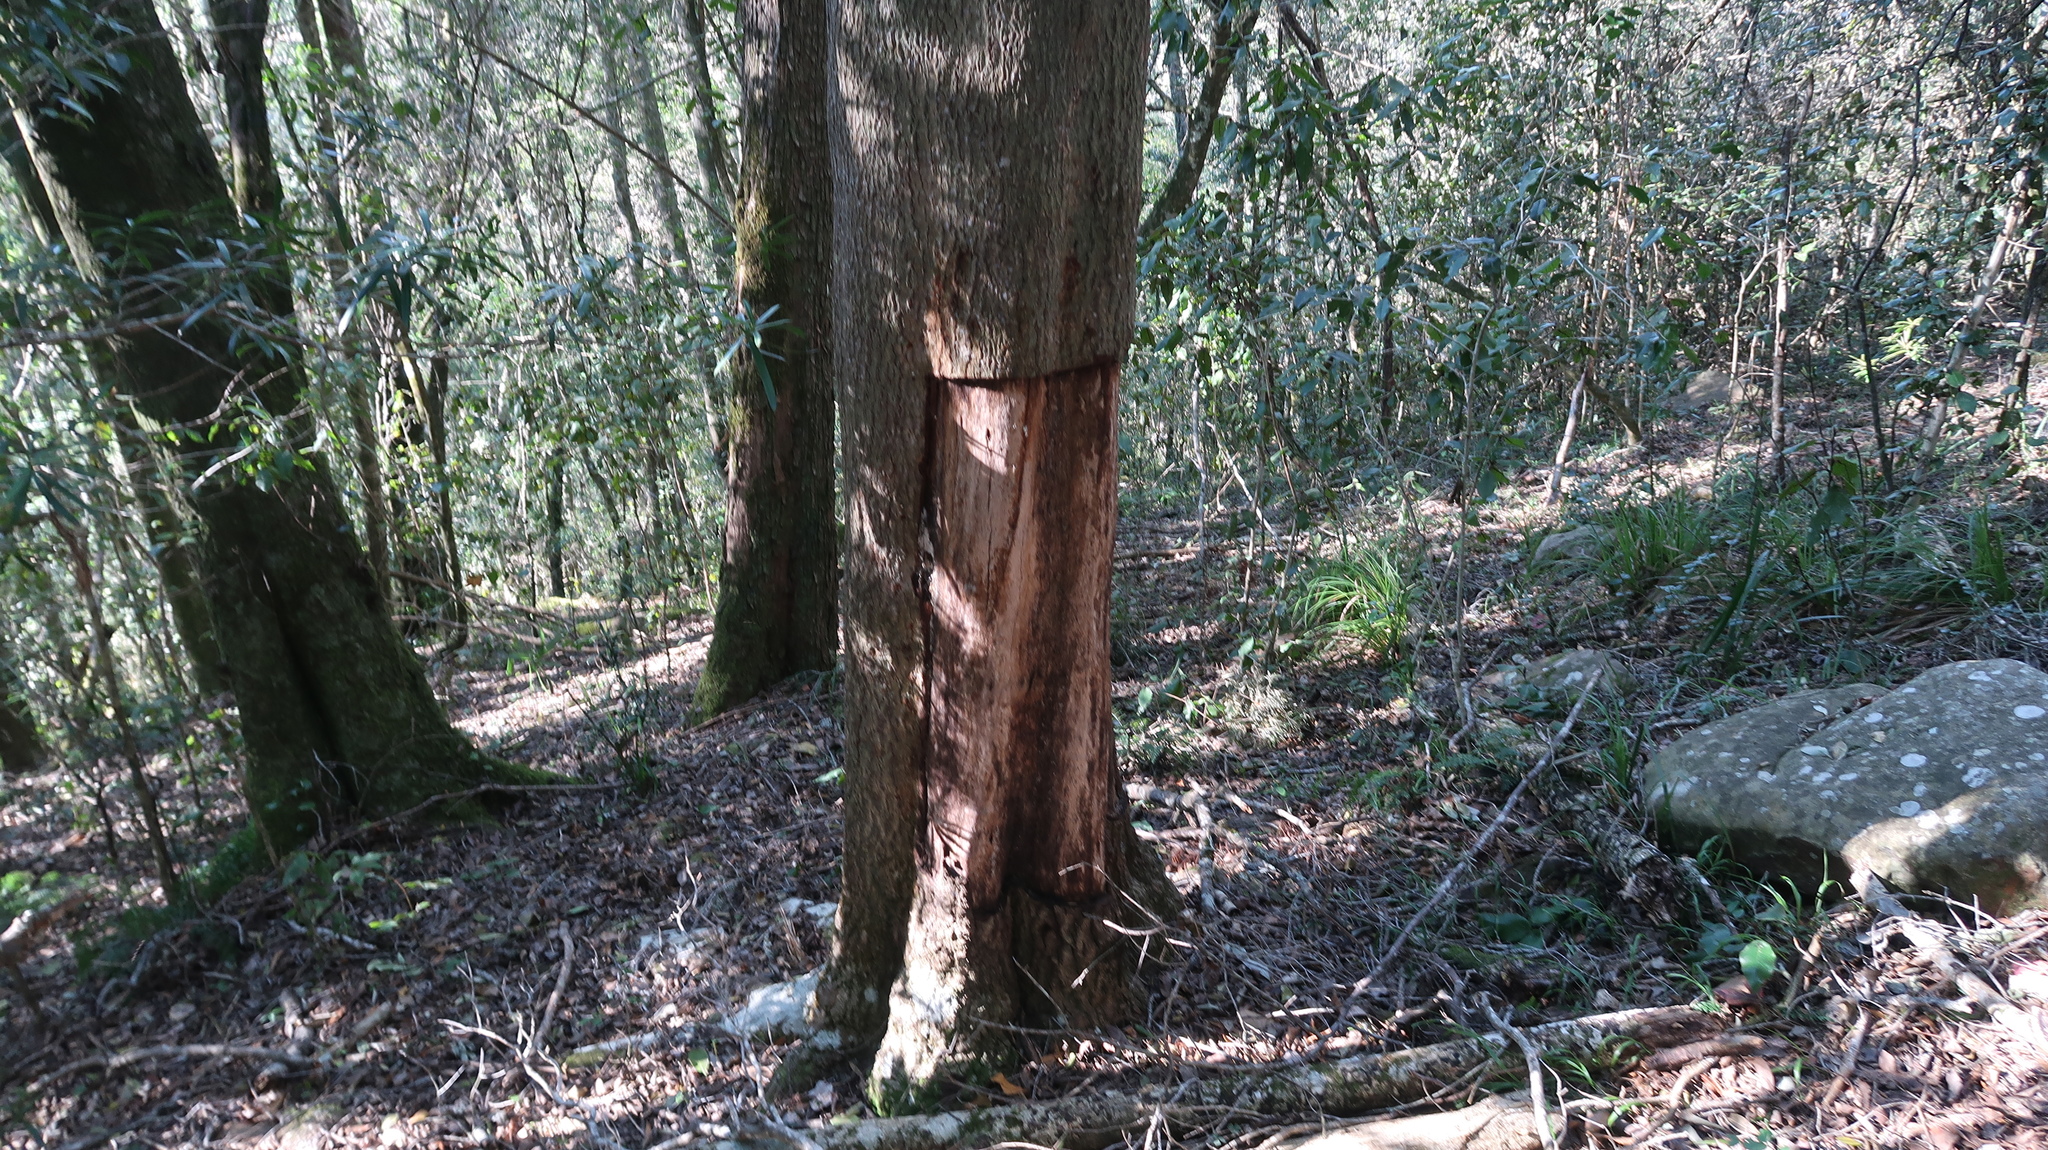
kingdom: Plantae
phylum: Tracheophyta
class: Magnoliopsida
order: Myrtales
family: Penaeaceae
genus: Olinia
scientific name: Olinia ventosa
